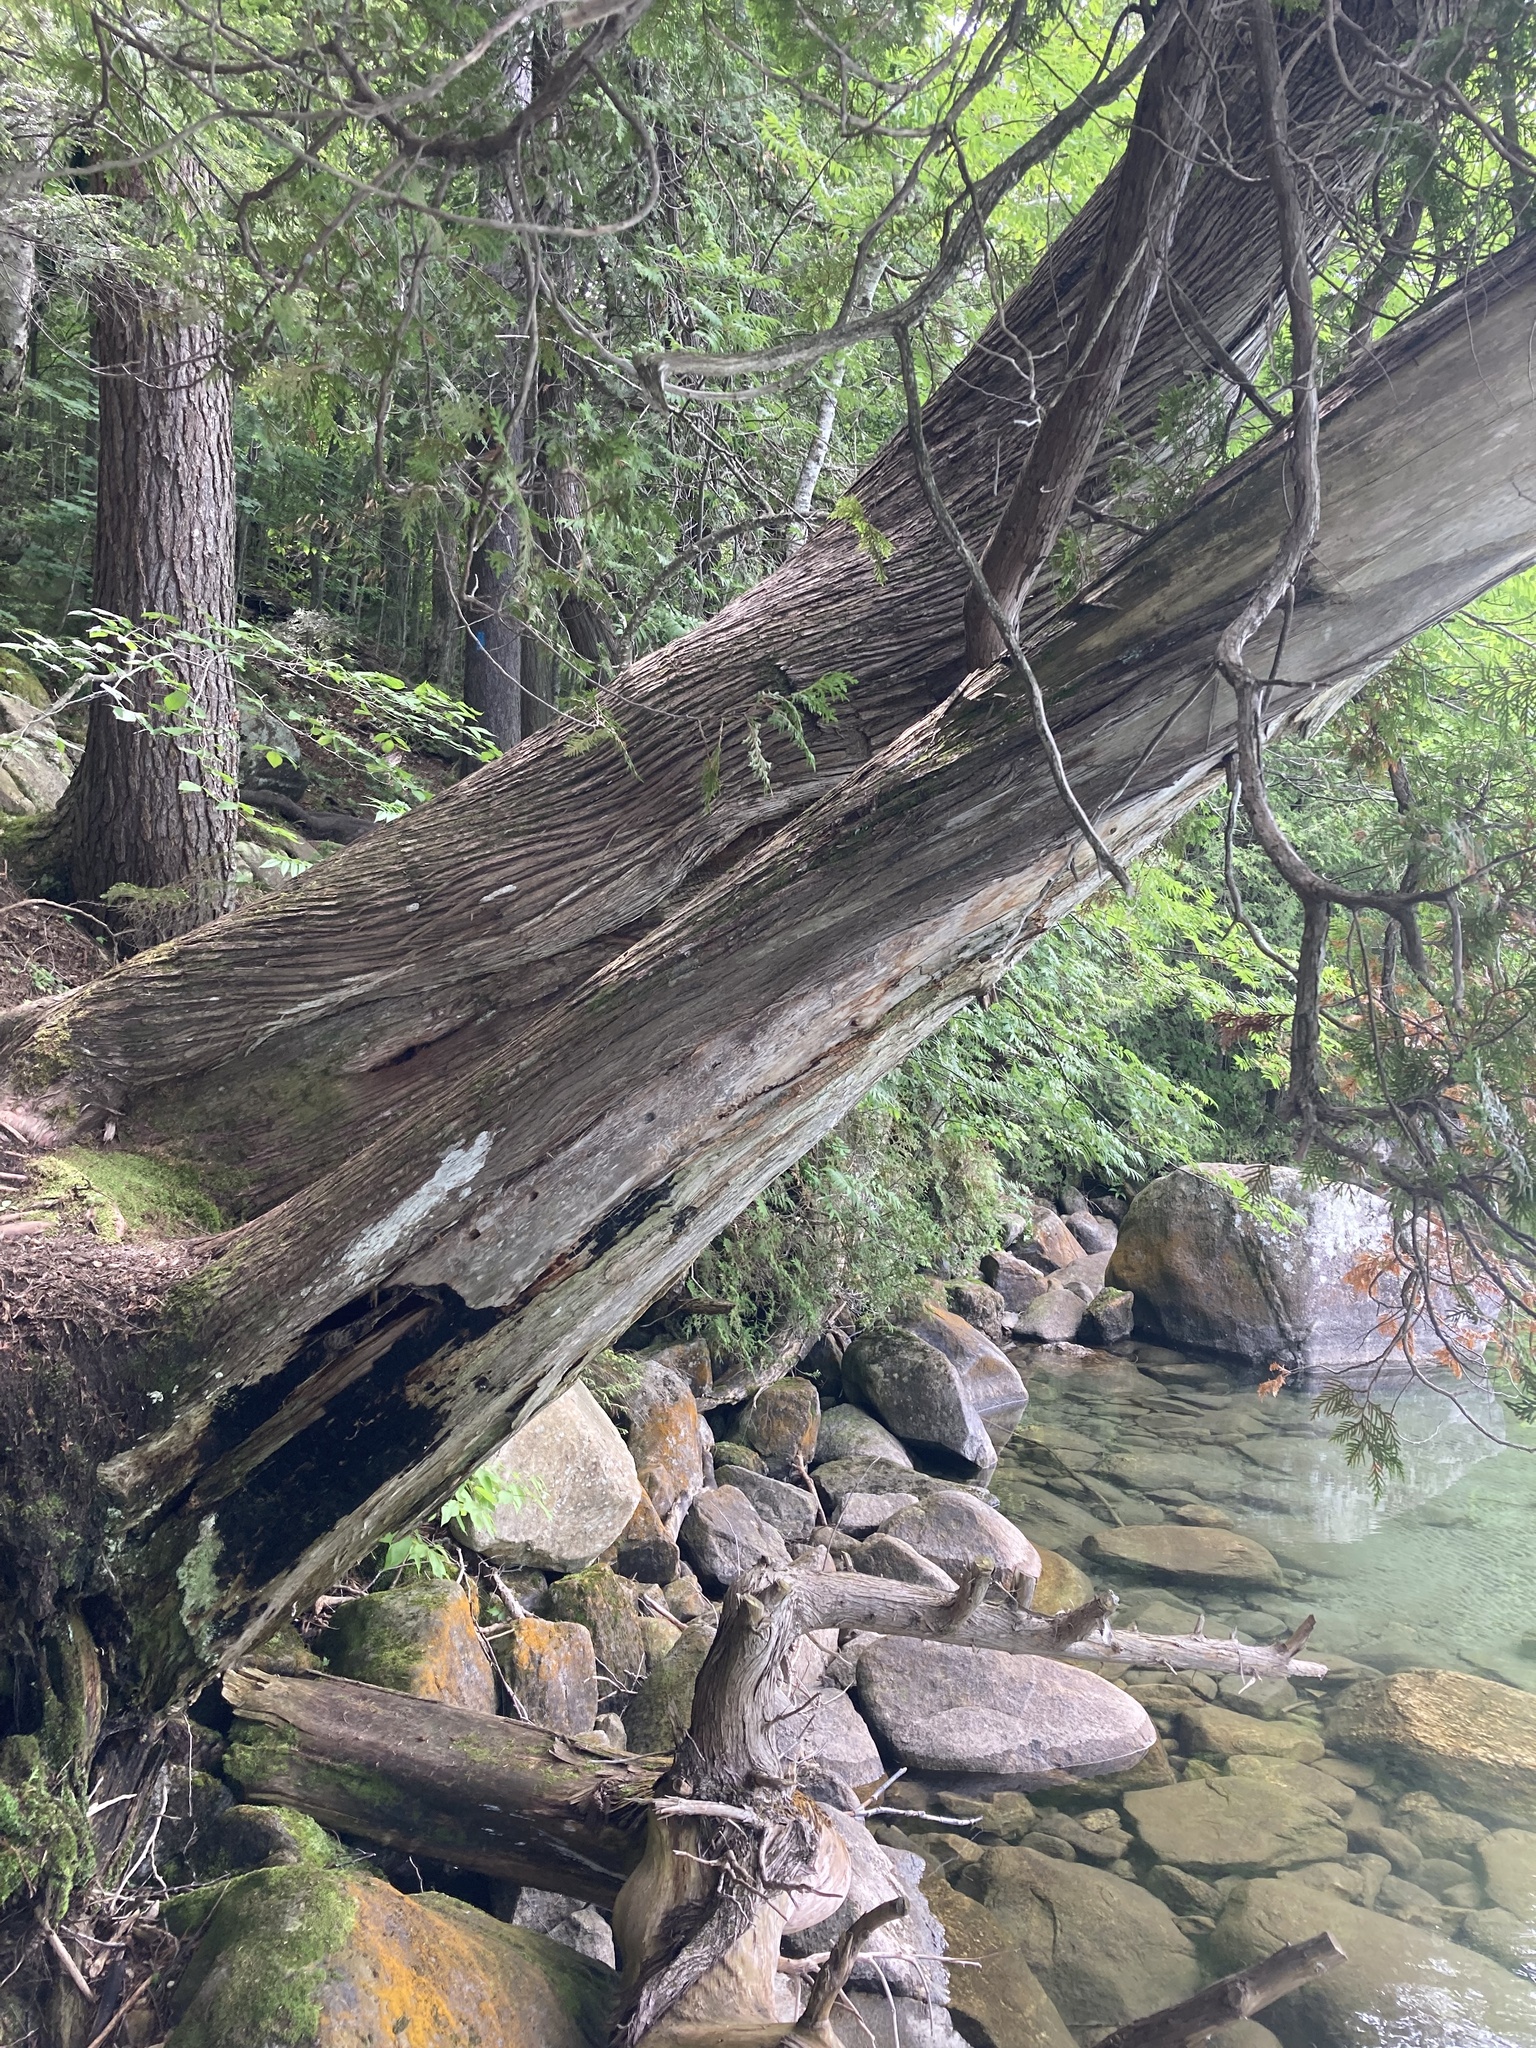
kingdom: Plantae
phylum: Tracheophyta
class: Pinopsida
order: Pinales
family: Cupressaceae
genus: Thuja
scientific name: Thuja occidentalis
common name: Northern white-cedar
